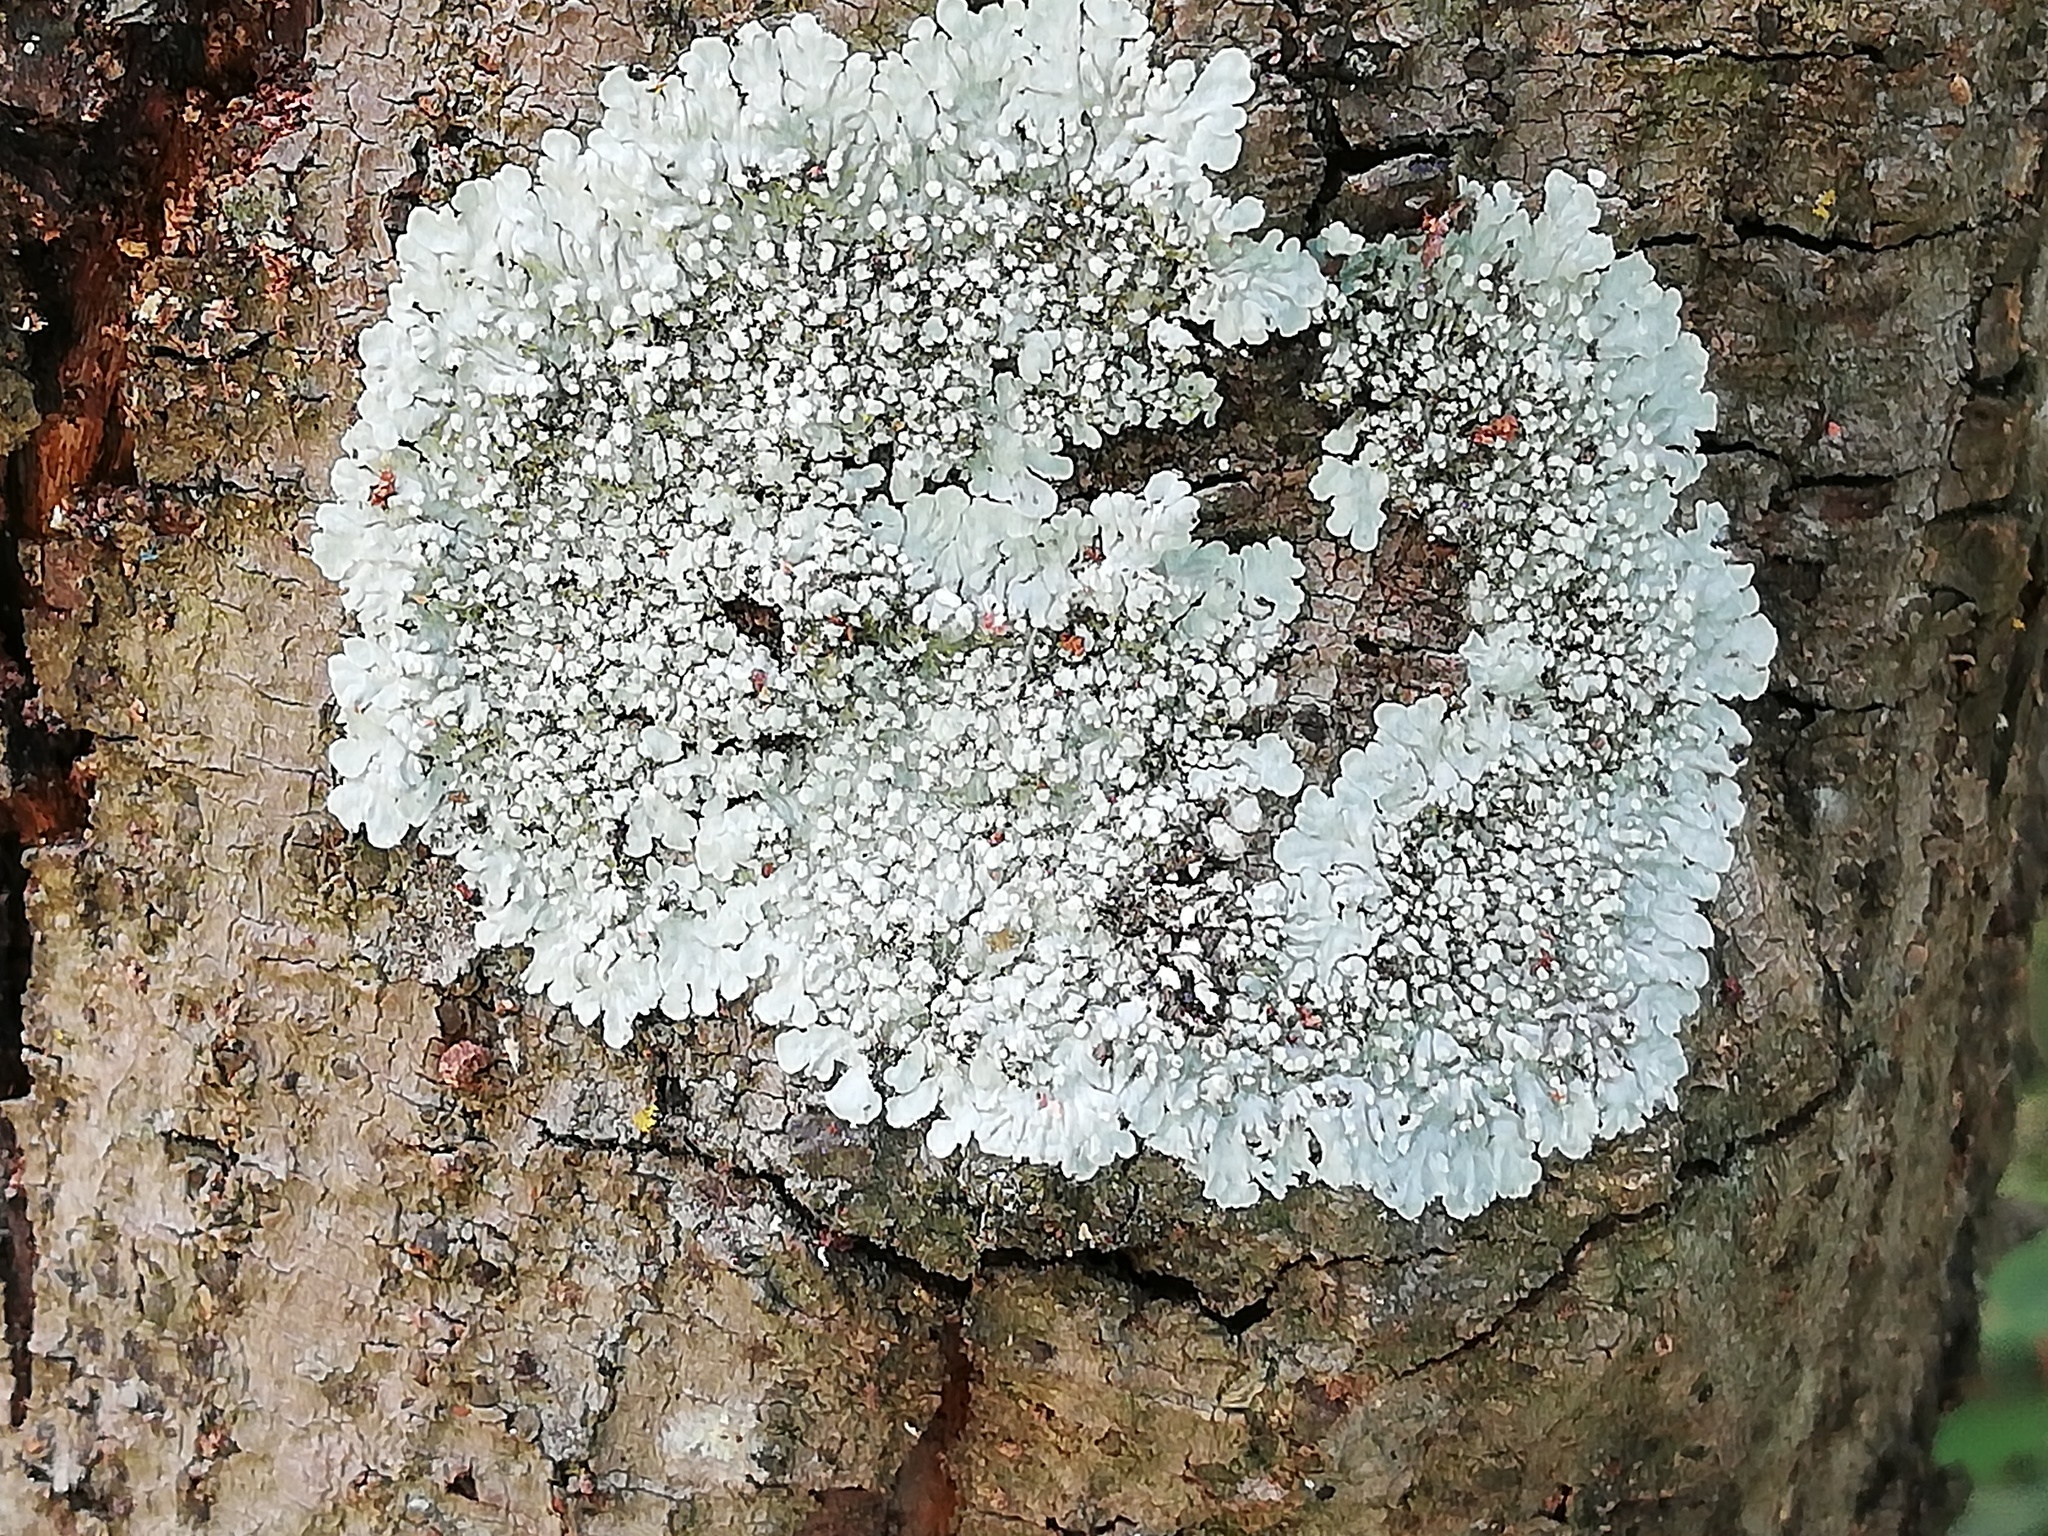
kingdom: Fungi
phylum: Ascomycota
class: Lecanoromycetes
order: Caliciales
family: Caliciaceae
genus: Dirinaria
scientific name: Dirinaria applanata
